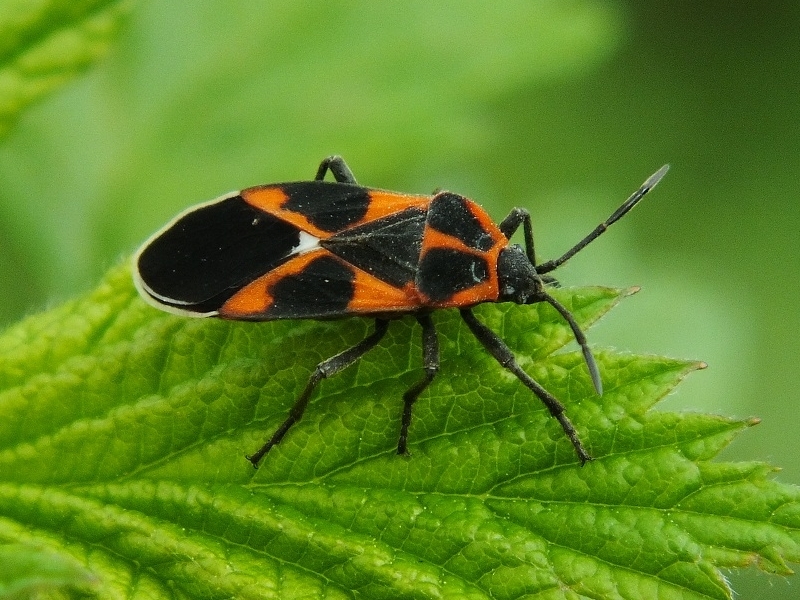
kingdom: Animalia
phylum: Arthropoda
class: Insecta
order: Hemiptera
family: Lygaeidae
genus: Tropidothorax
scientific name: Tropidothorax leucopterus
